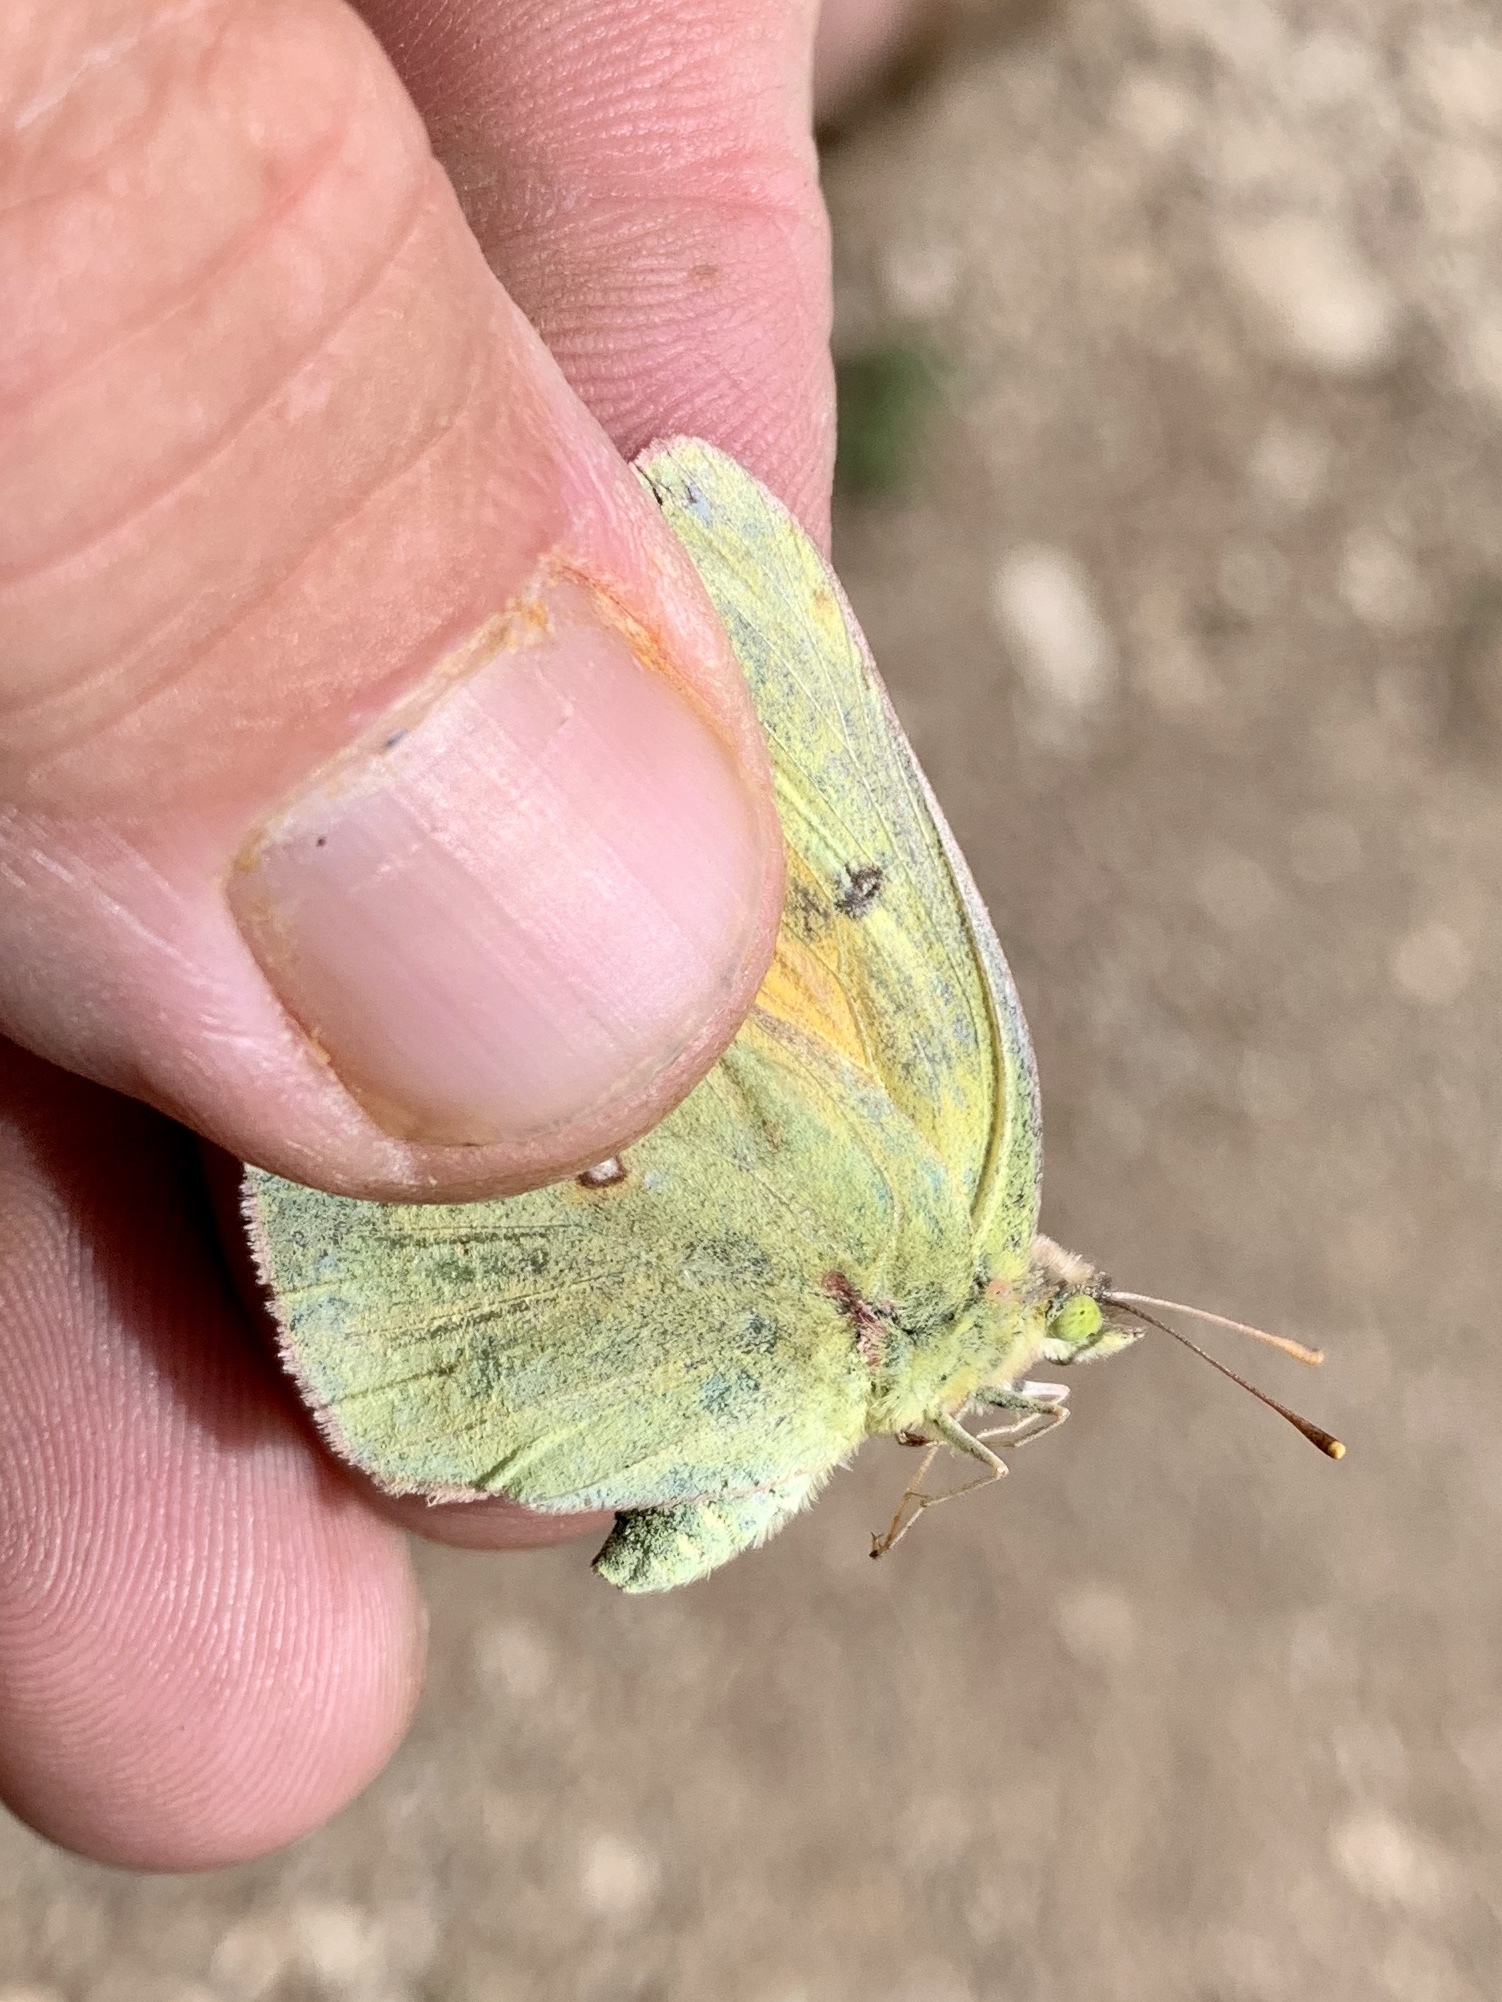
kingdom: Animalia
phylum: Arthropoda
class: Insecta
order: Lepidoptera
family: Pieridae
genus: Colias
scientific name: Colias eurytheme
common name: Alfalfa butterfly
